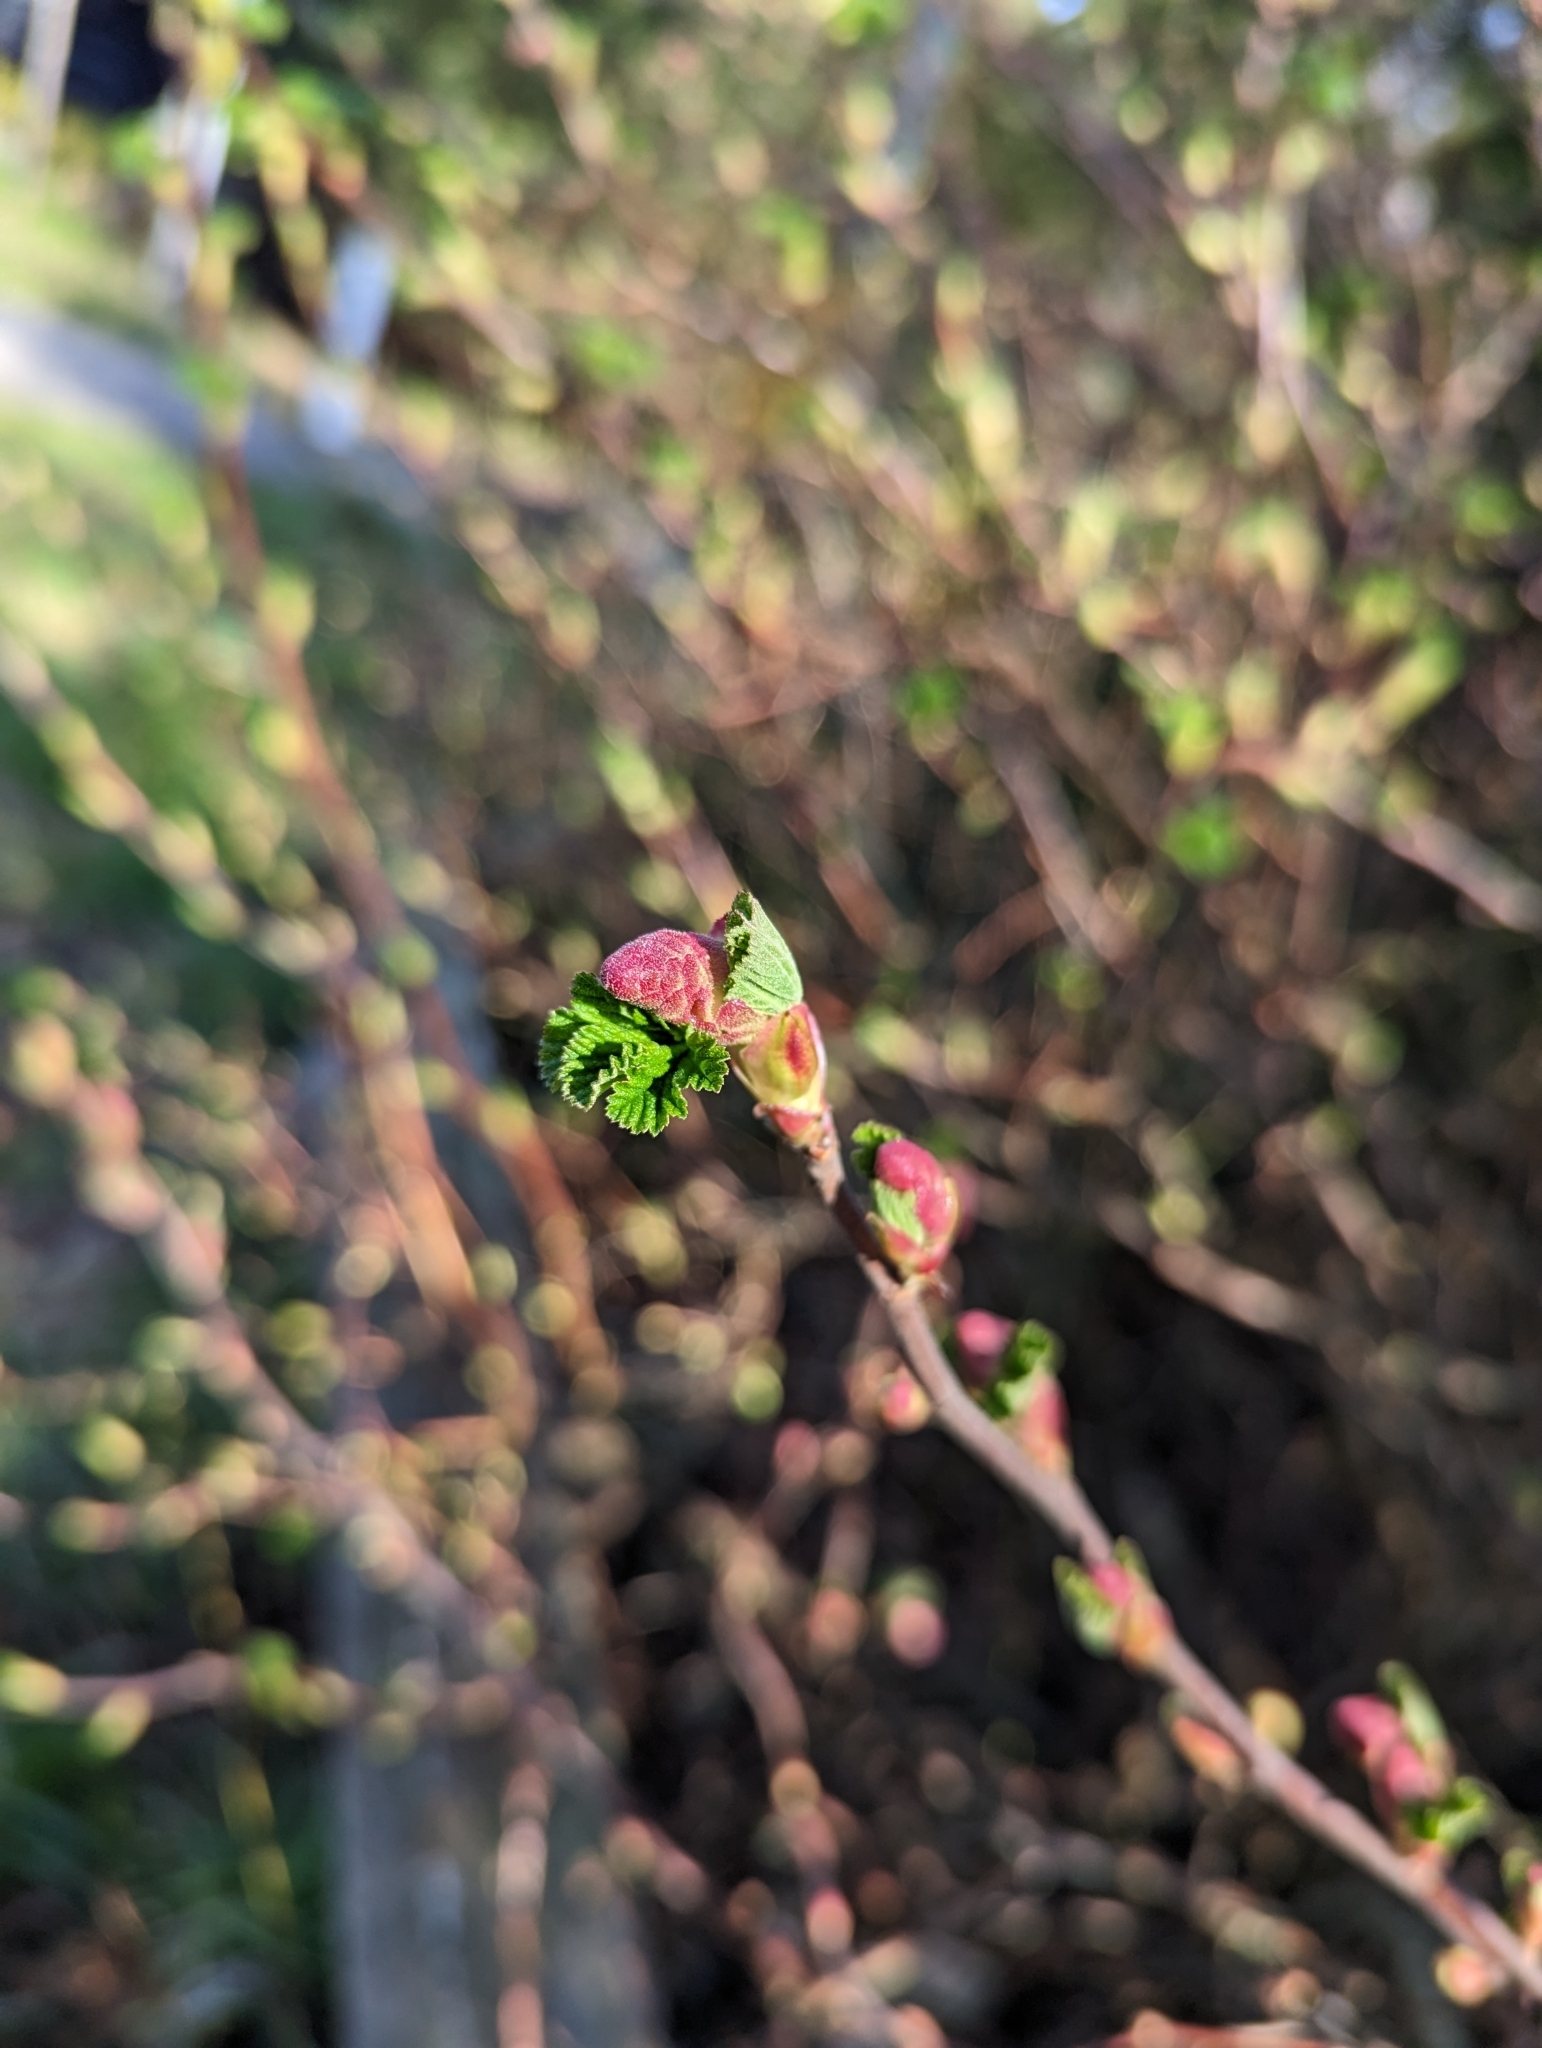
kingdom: Plantae
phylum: Tracheophyta
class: Magnoliopsida
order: Saxifragales
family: Grossulariaceae
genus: Ribes
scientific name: Ribes sanguineum
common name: Flowering currant
